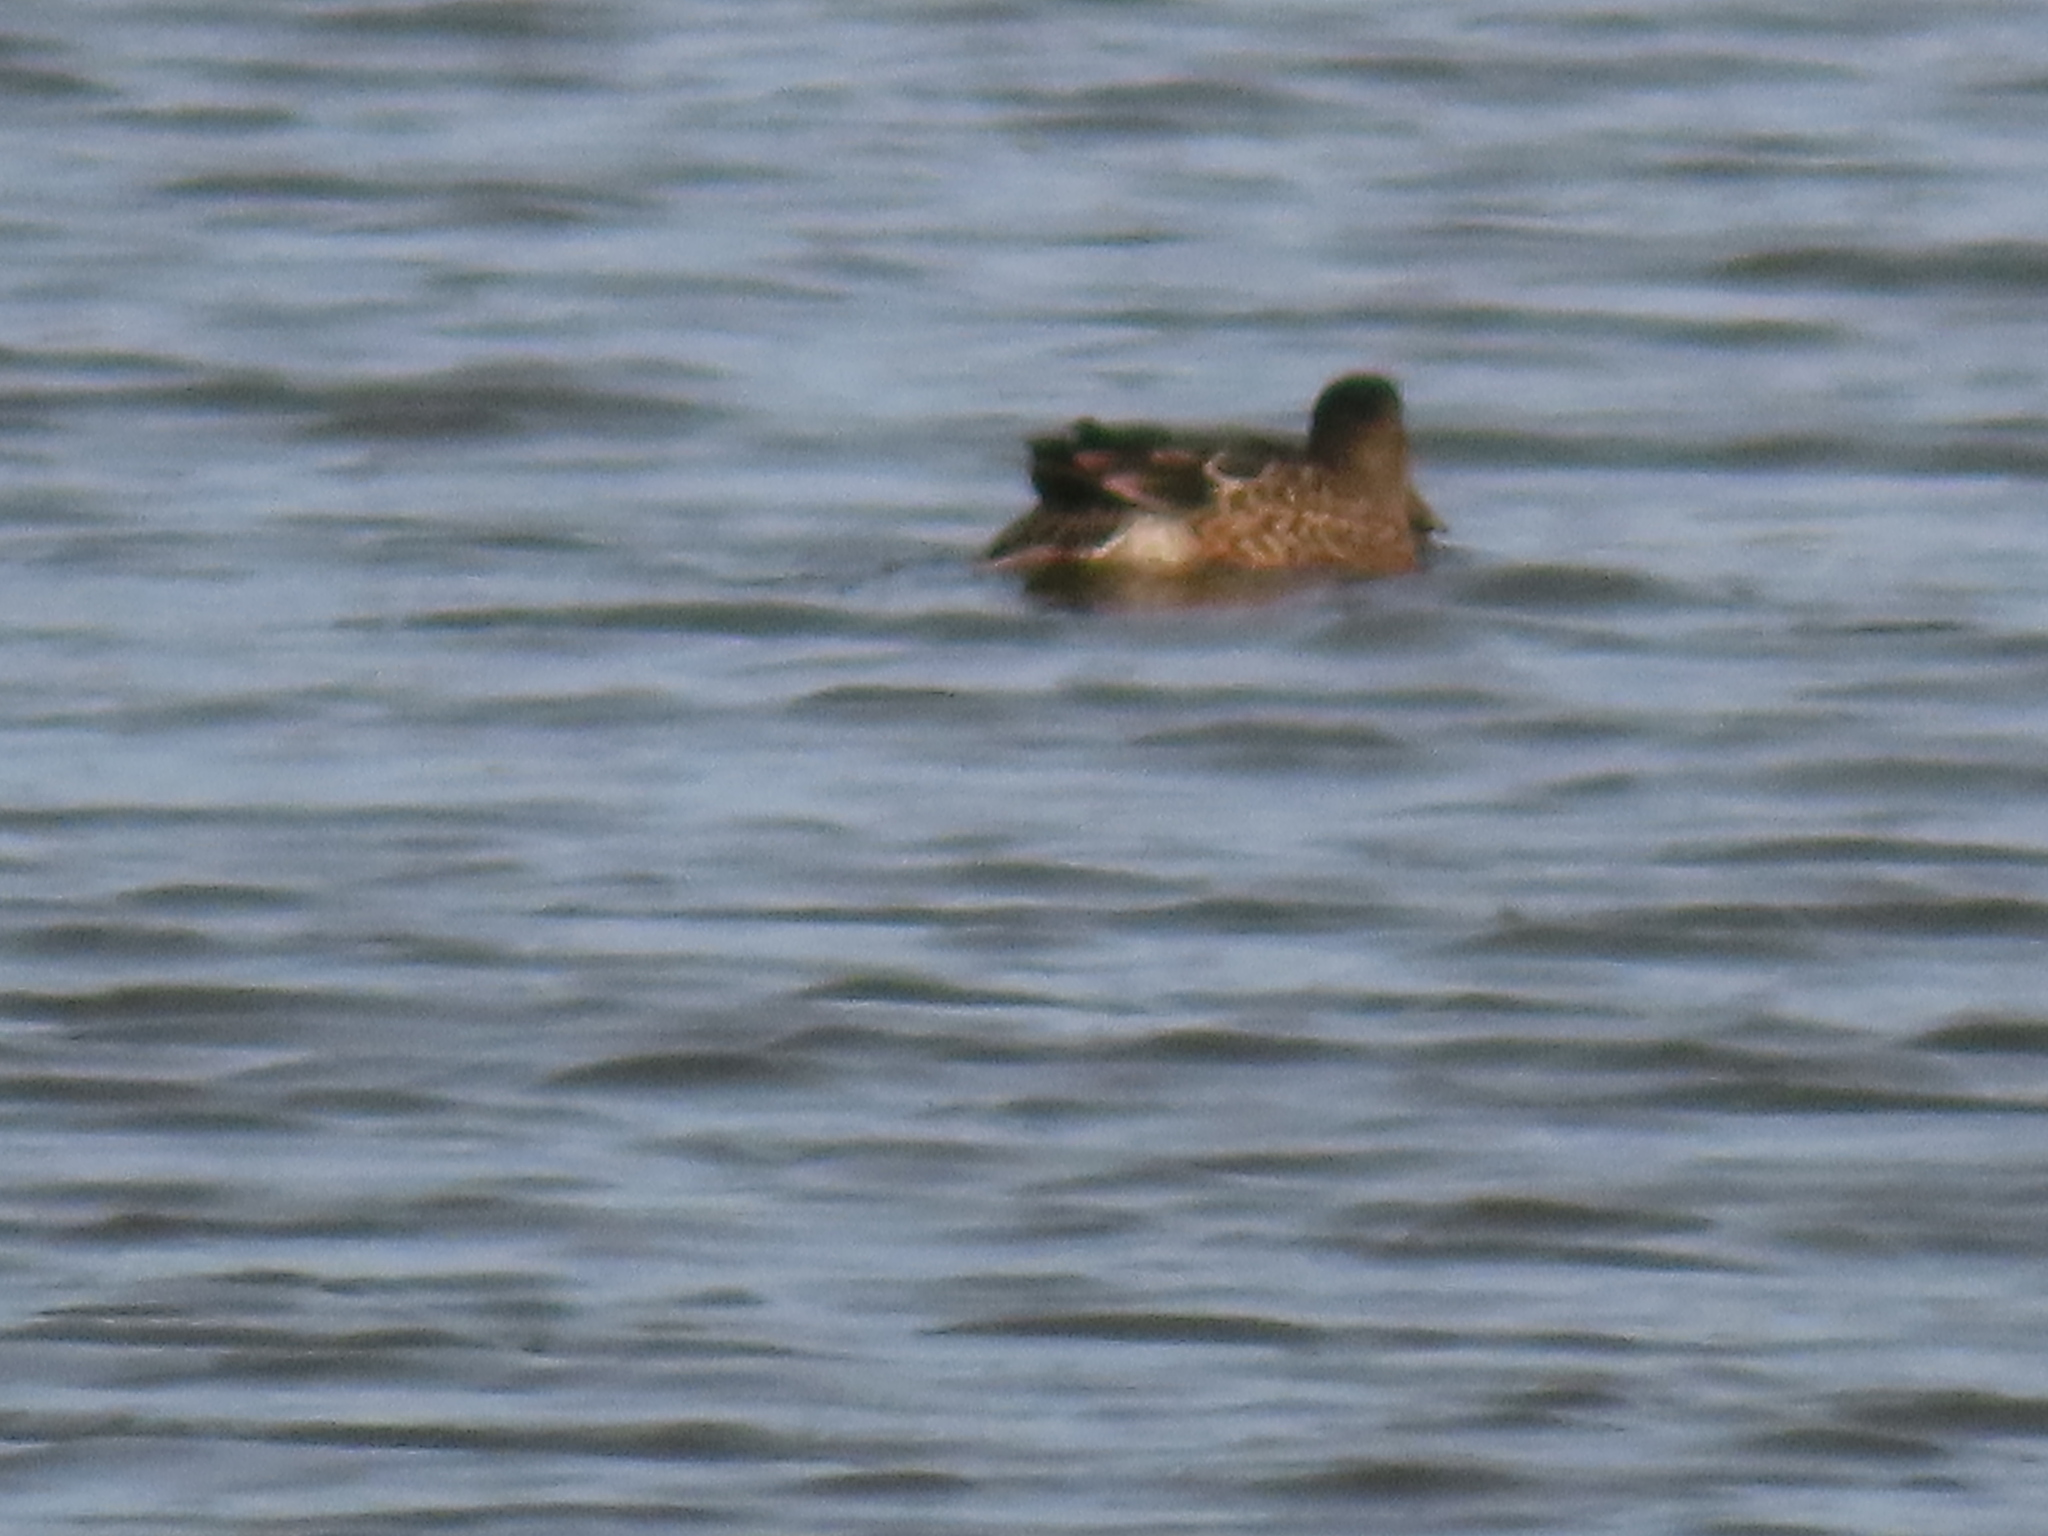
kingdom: Animalia
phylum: Chordata
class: Aves
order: Anseriformes
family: Anatidae
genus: Spatula
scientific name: Spatula clypeata
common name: Northern shoveler
